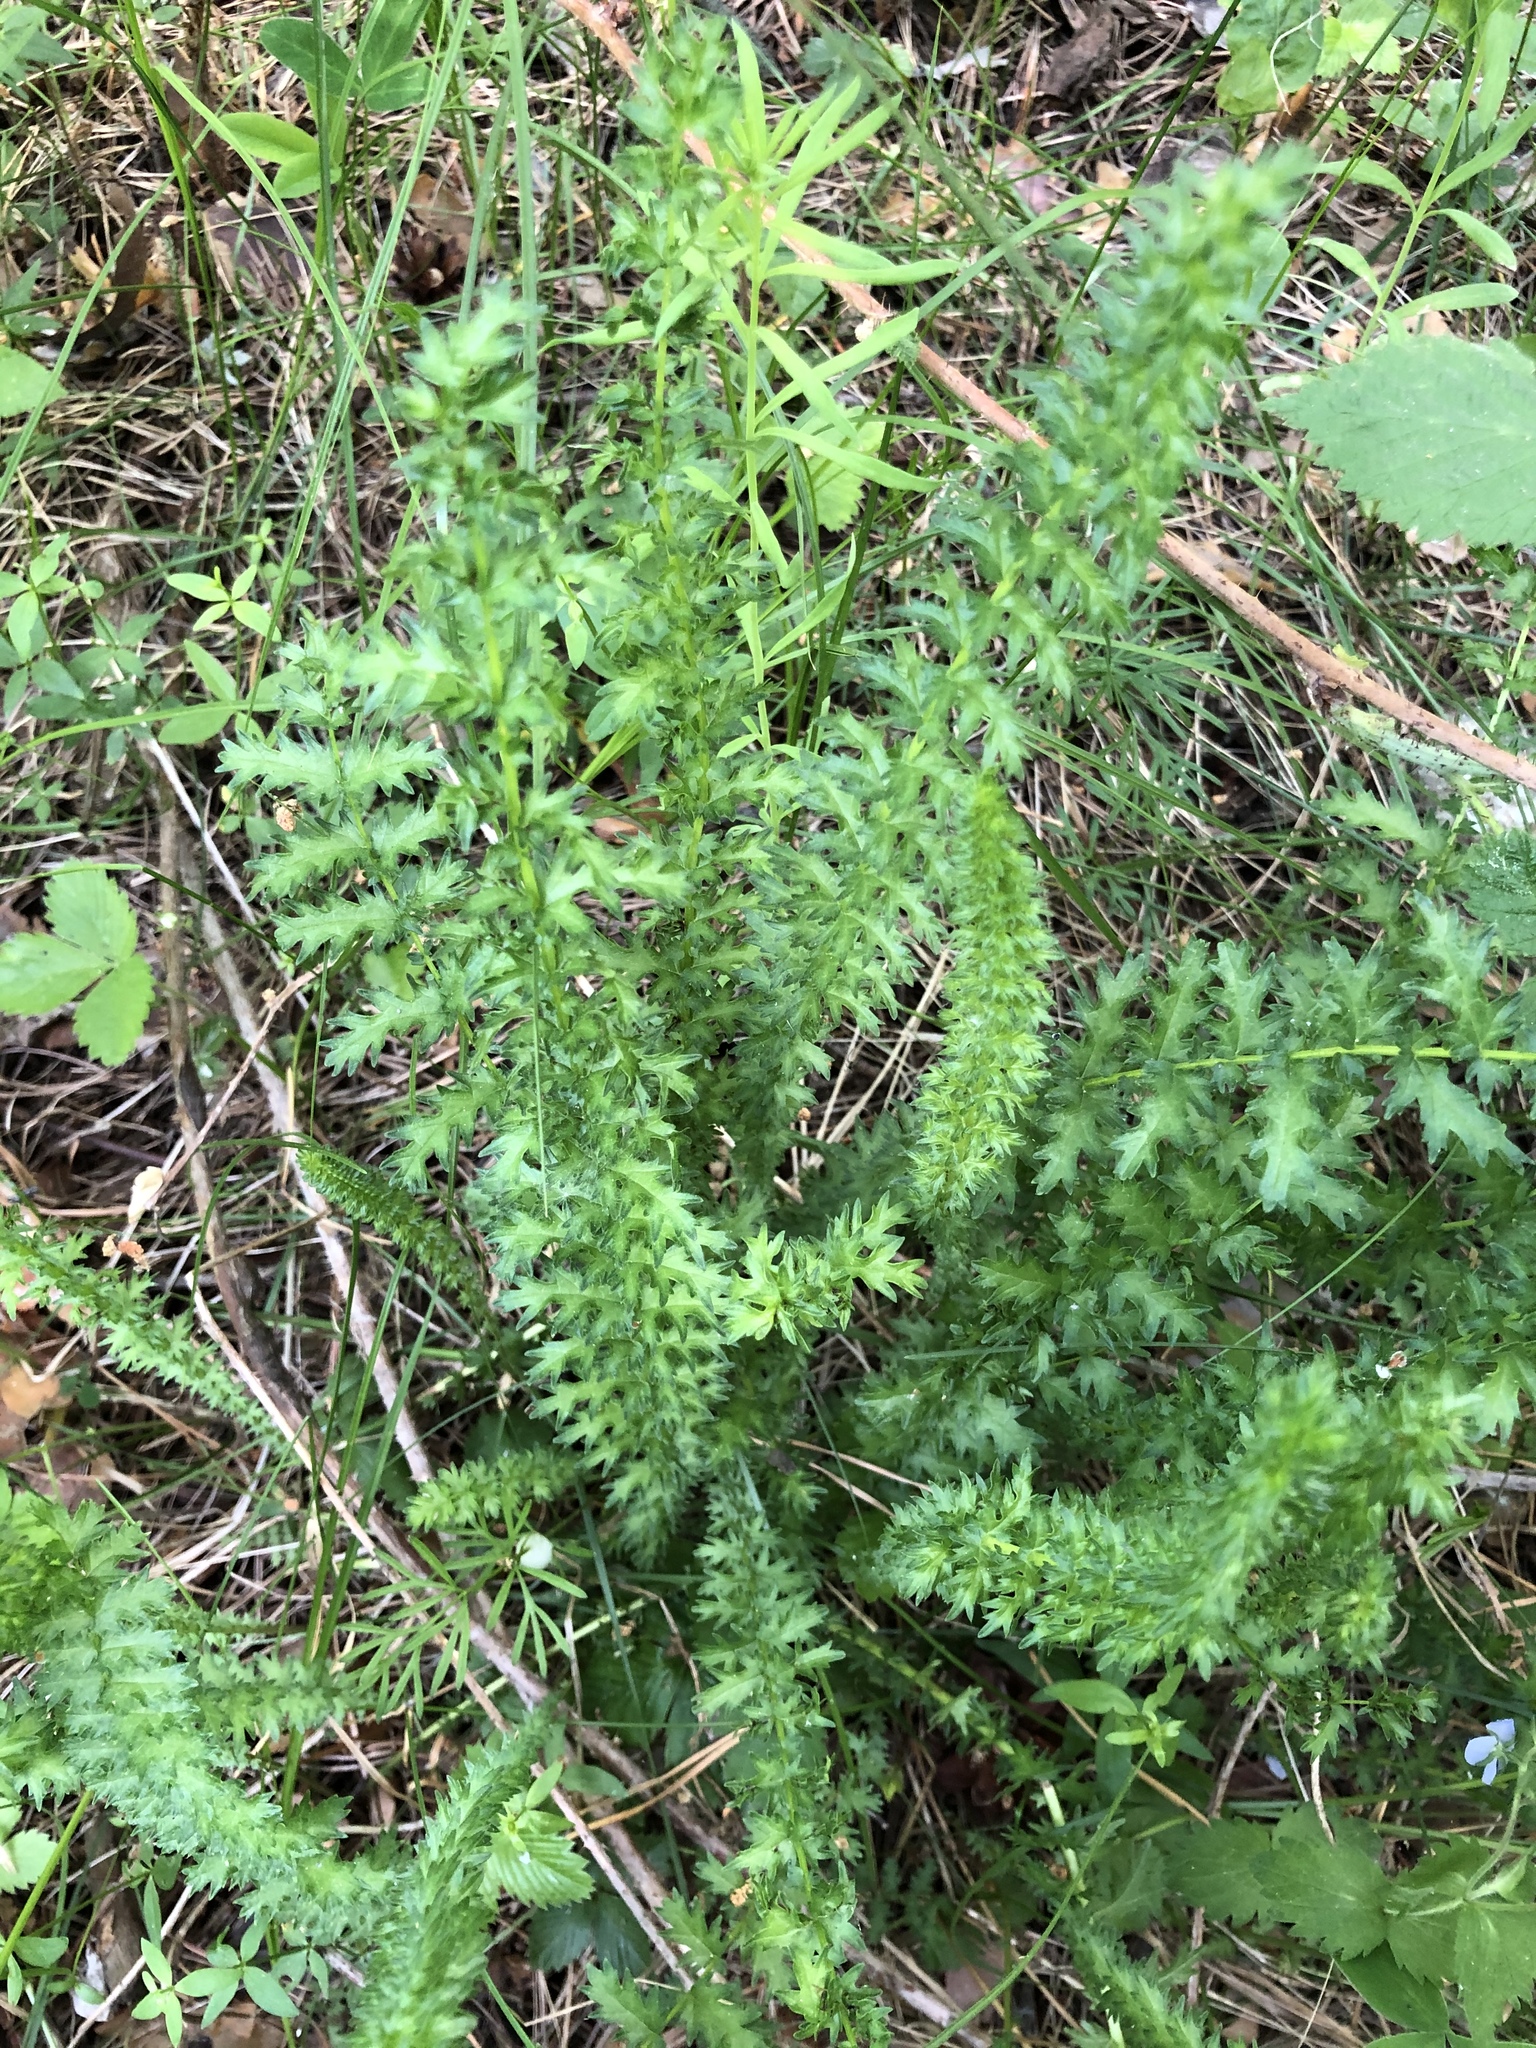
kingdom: Plantae
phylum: Tracheophyta
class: Magnoliopsida
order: Rosales
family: Rosaceae
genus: Filipendula
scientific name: Filipendula vulgaris
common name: Dropwort
